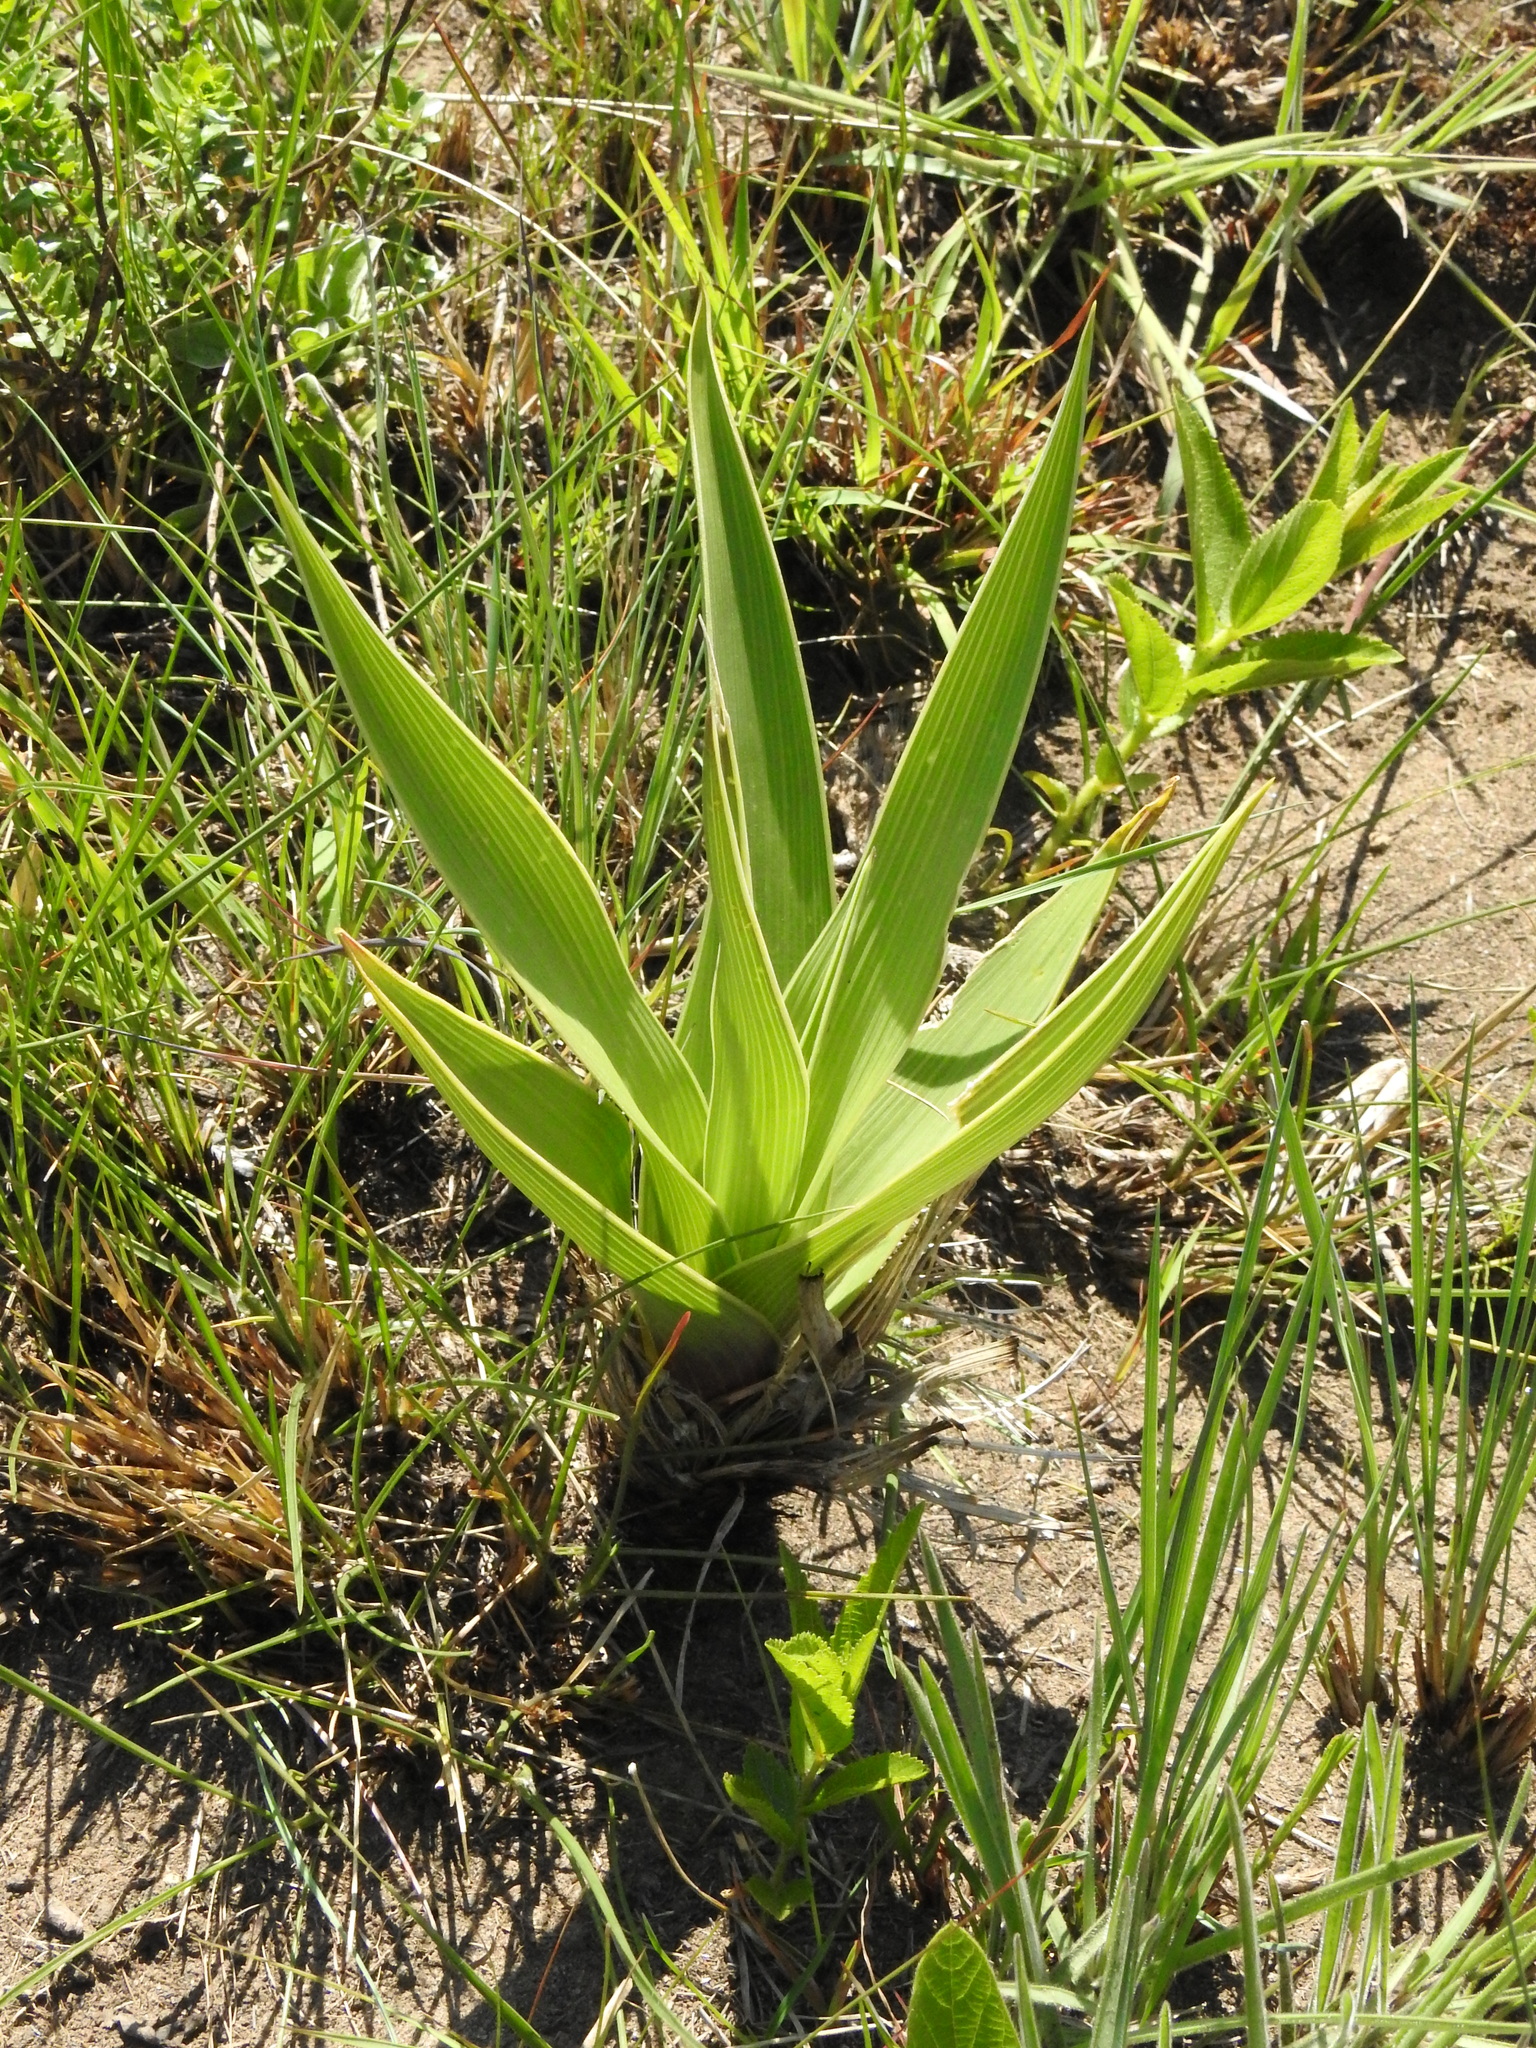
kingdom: Plantae
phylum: Tracheophyta
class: Liliopsida
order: Asparagales
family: Asparagaceae
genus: Schizocarphus
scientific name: Schizocarphus nervosus
